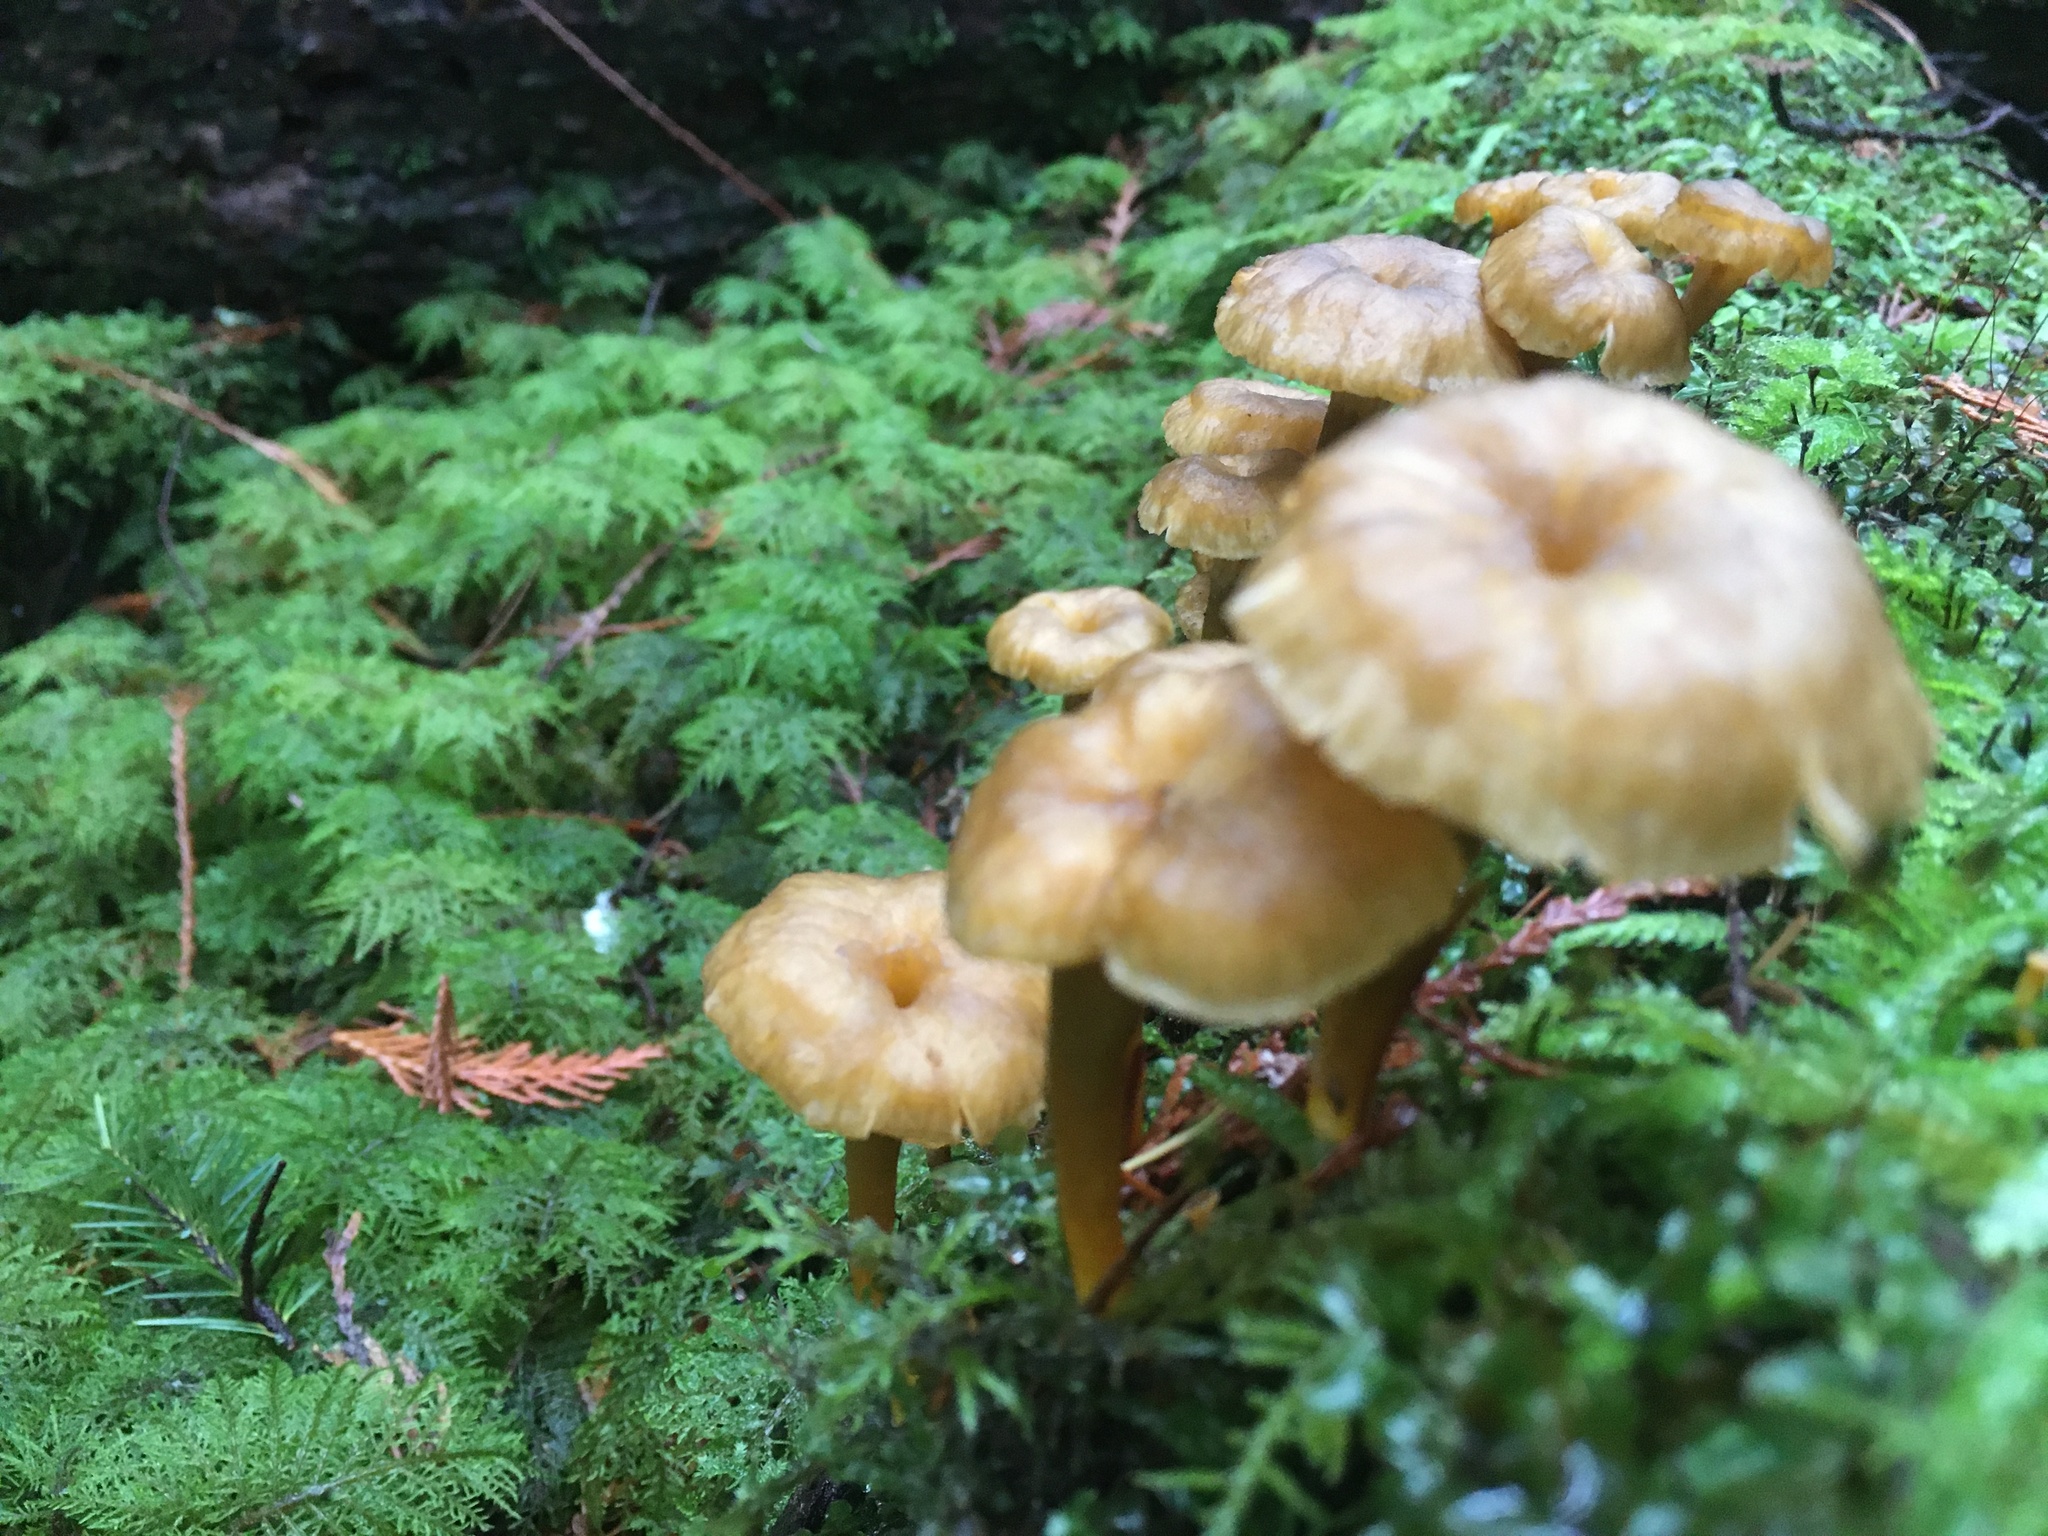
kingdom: Fungi
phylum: Basidiomycota
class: Agaricomycetes
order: Cantharellales
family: Hydnaceae
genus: Craterellus
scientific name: Craterellus tubaeformis
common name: Yellowfoot
